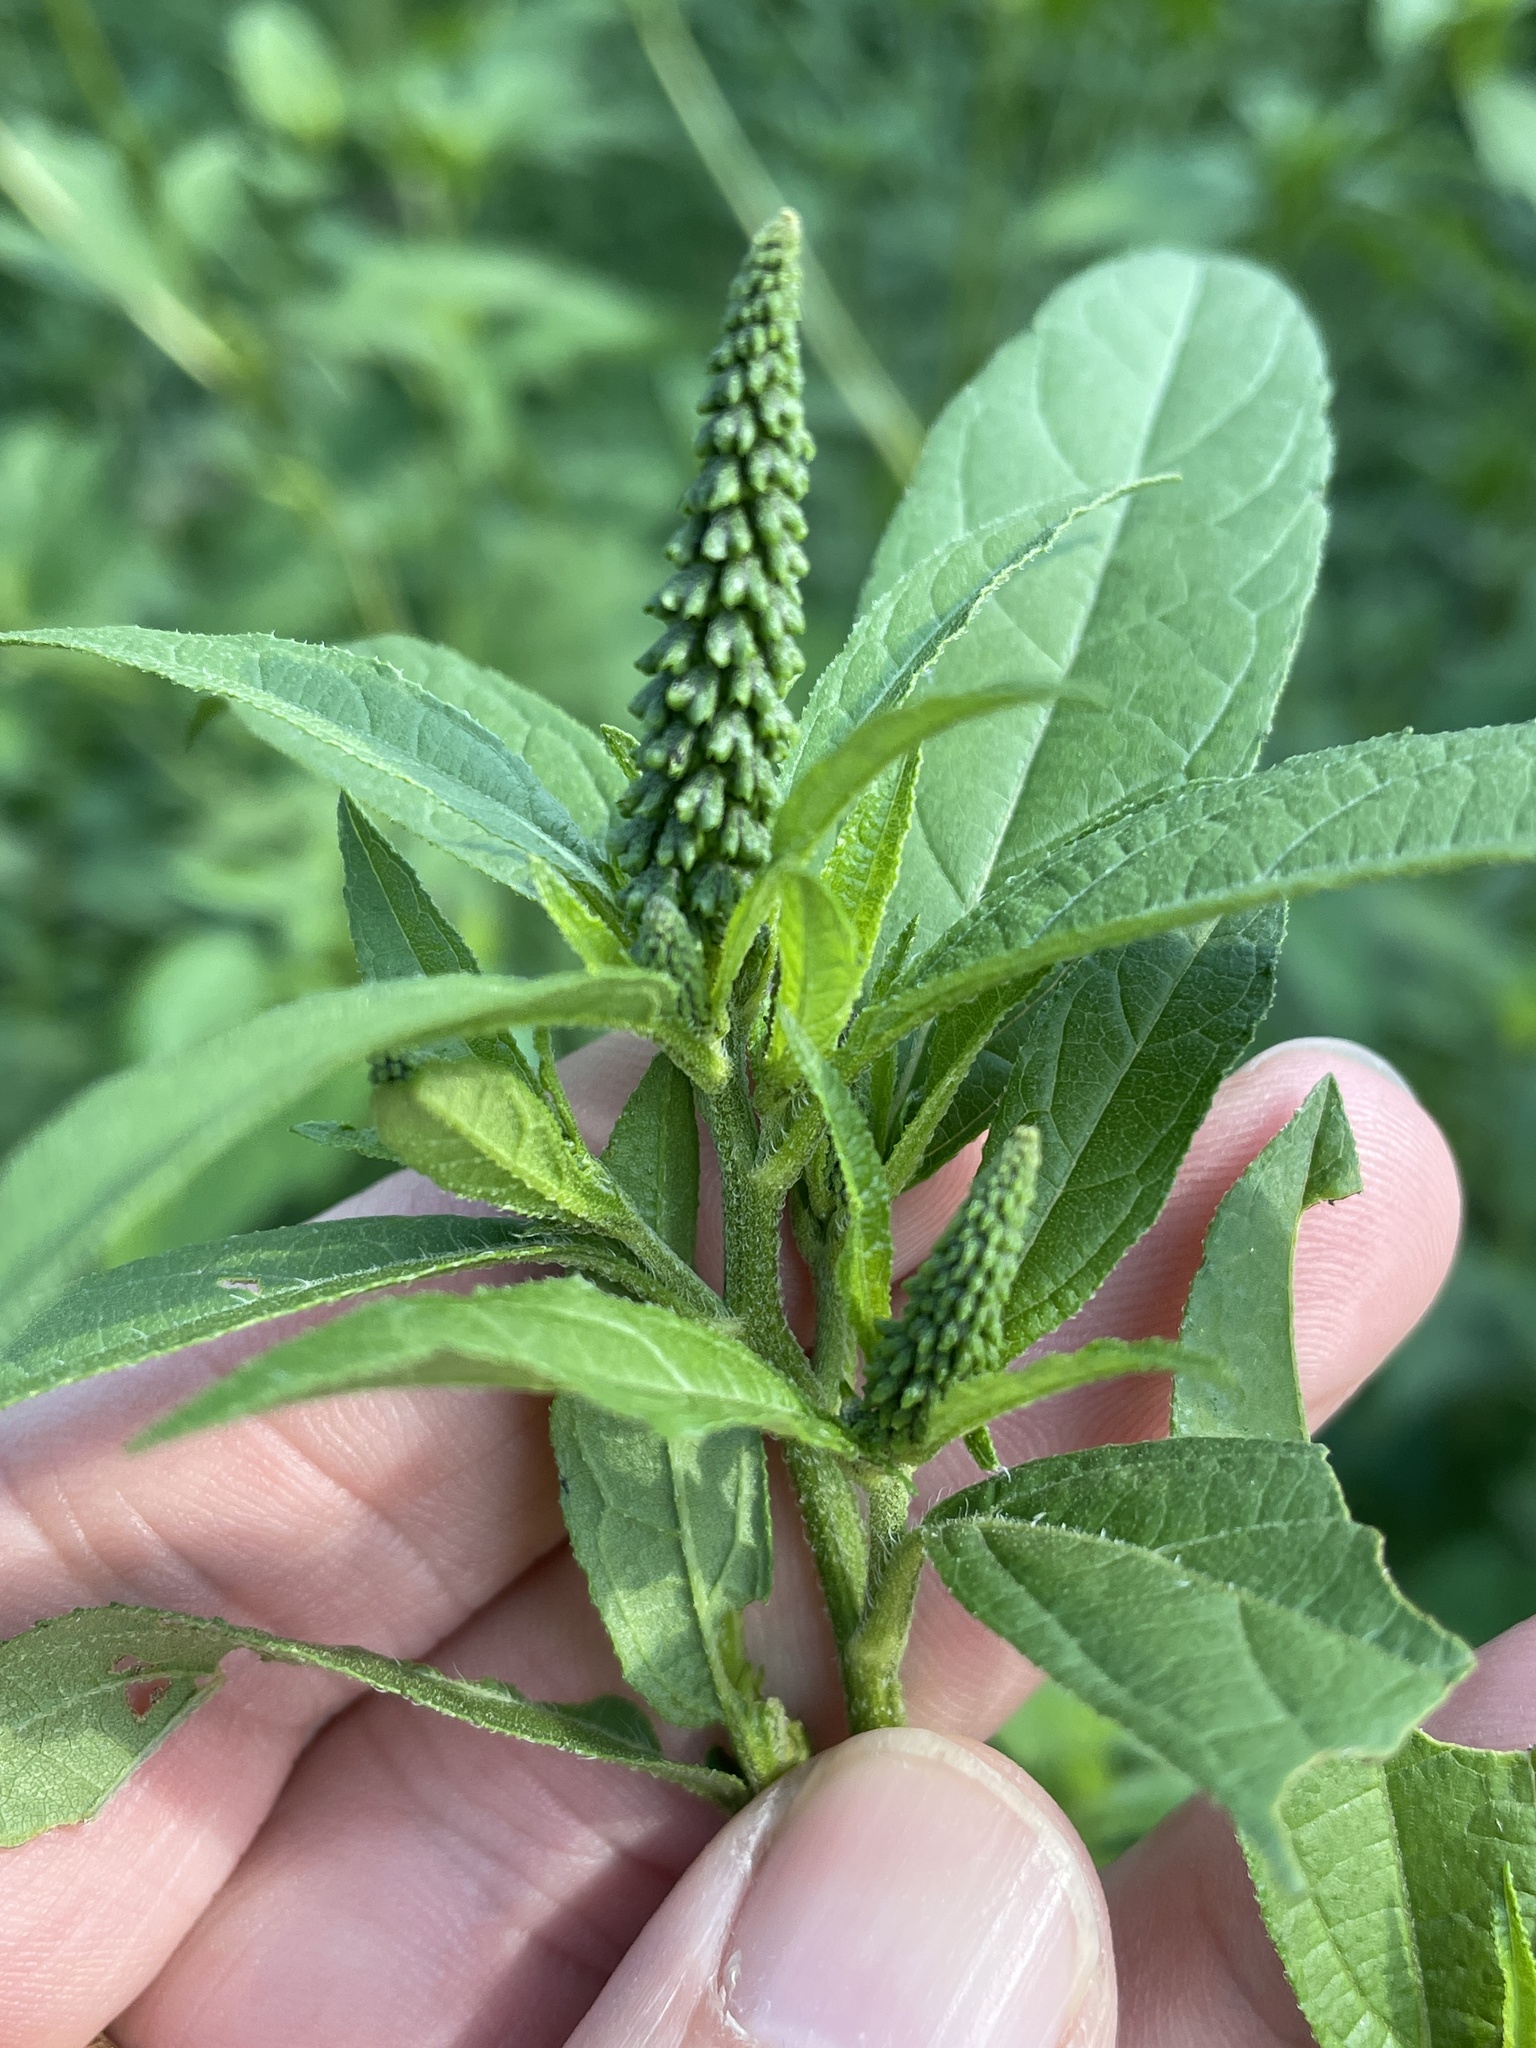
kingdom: Plantae
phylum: Tracheophyta
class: Magnoliopsida
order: Asterales
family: Asteraceae
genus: Ambrosia
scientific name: Ambrosia trifida
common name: Giant ragweed
